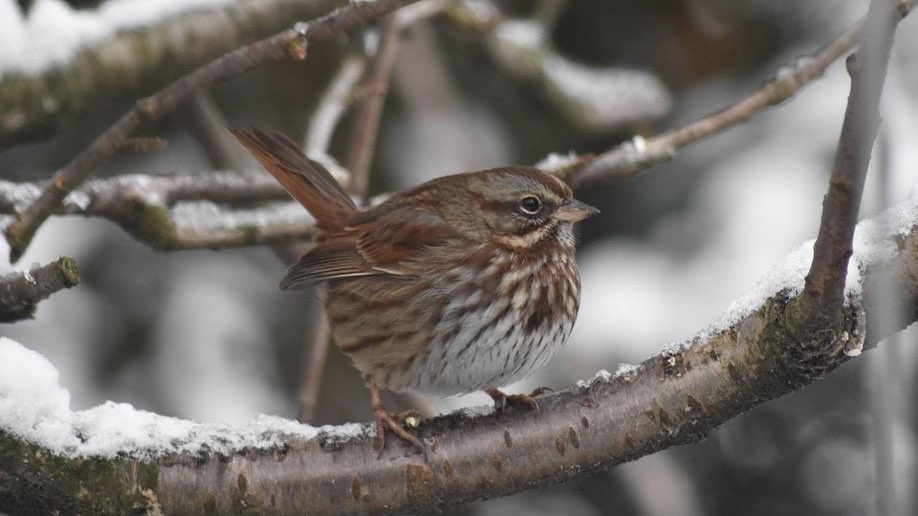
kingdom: Animalia
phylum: Chordata
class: Aves
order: Passeriformes
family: Passerellidae
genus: Melospiza
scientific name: Melospiza melodia
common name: Song sparrow
